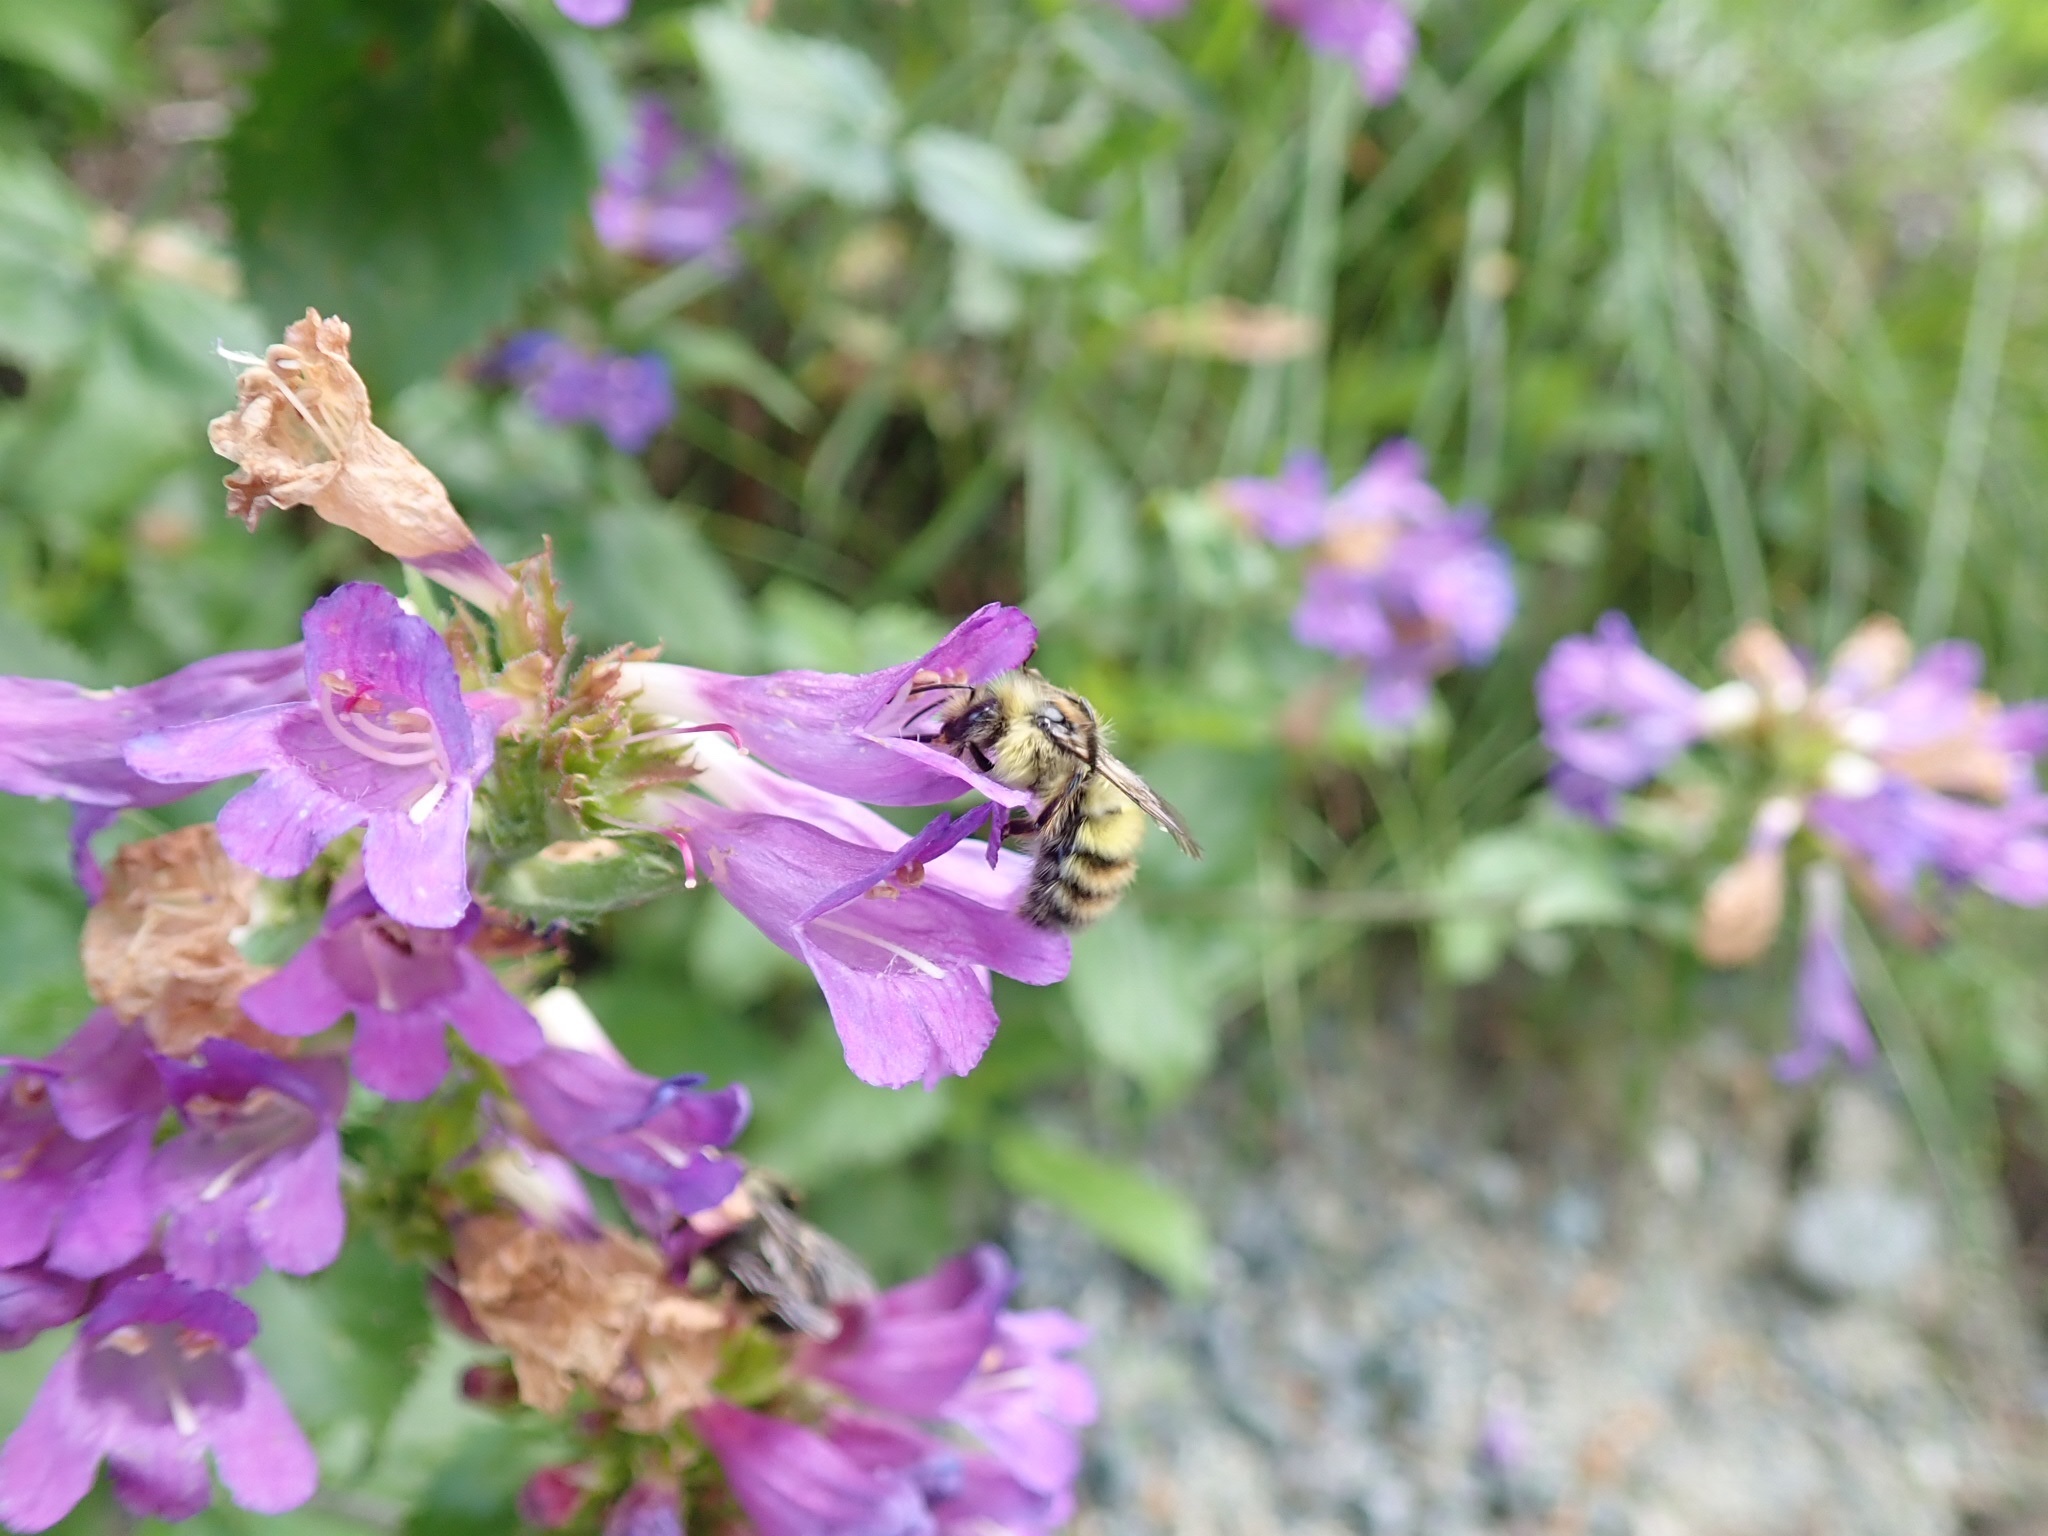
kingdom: Animalia
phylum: Arthropoda
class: Insecta
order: Hymenoptera
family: Apidae
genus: Bombus
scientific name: Bombus flavifrons
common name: Yellow head bumble bee
